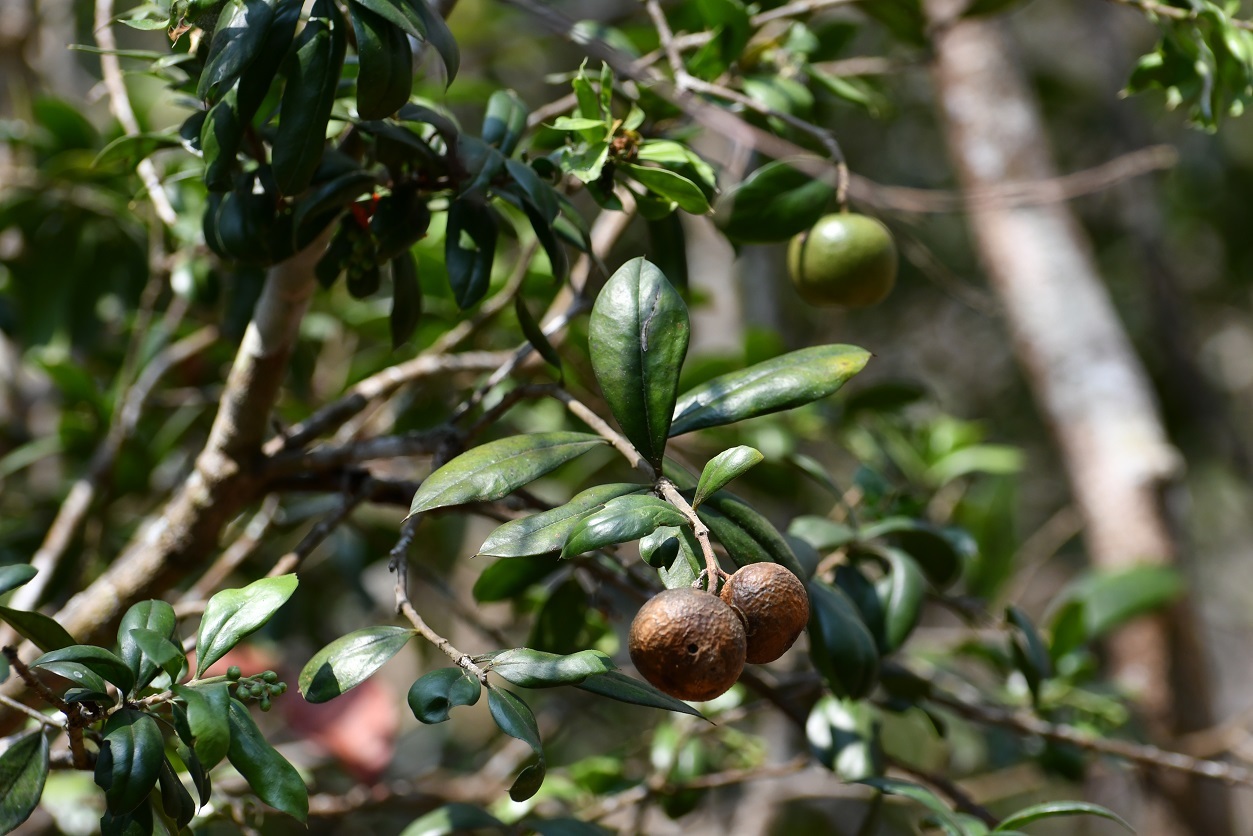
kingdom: Plantae
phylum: Tracheophyta
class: Magnoliopsida
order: Ericales
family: Primulaceae
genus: Bonellia
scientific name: Bonellia macrocarpa
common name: Primrose
